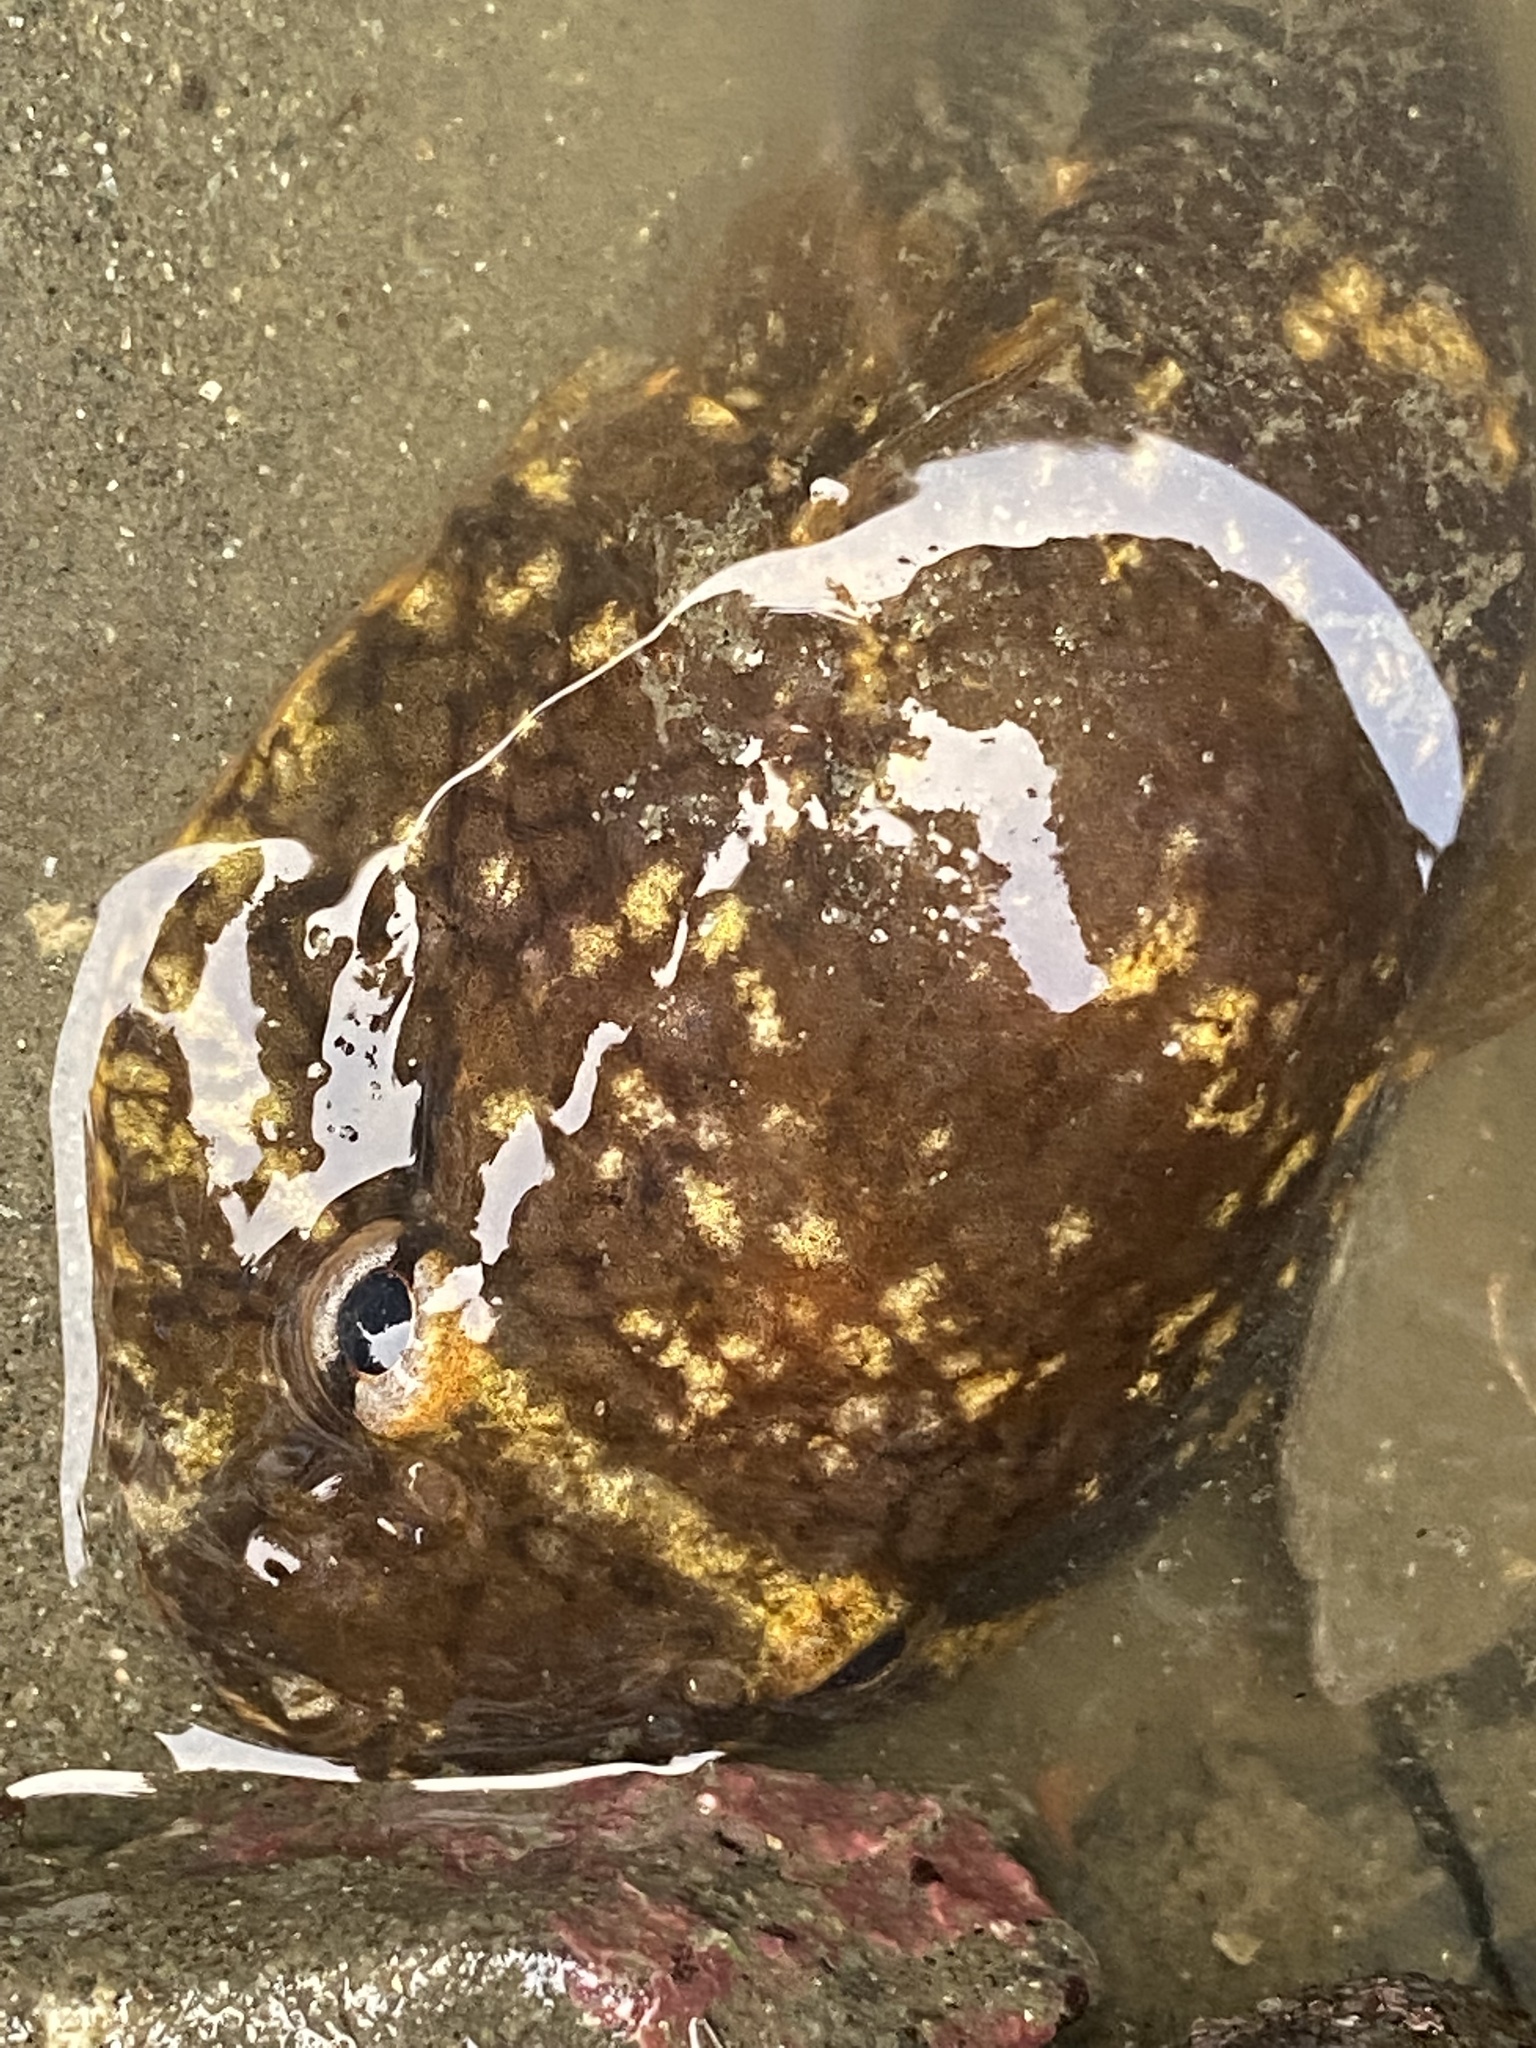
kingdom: Animalia
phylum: Chordata
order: Gobiesociformes
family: Gobiesocidae
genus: Gobiesox
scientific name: Gobiesox maeandricus
